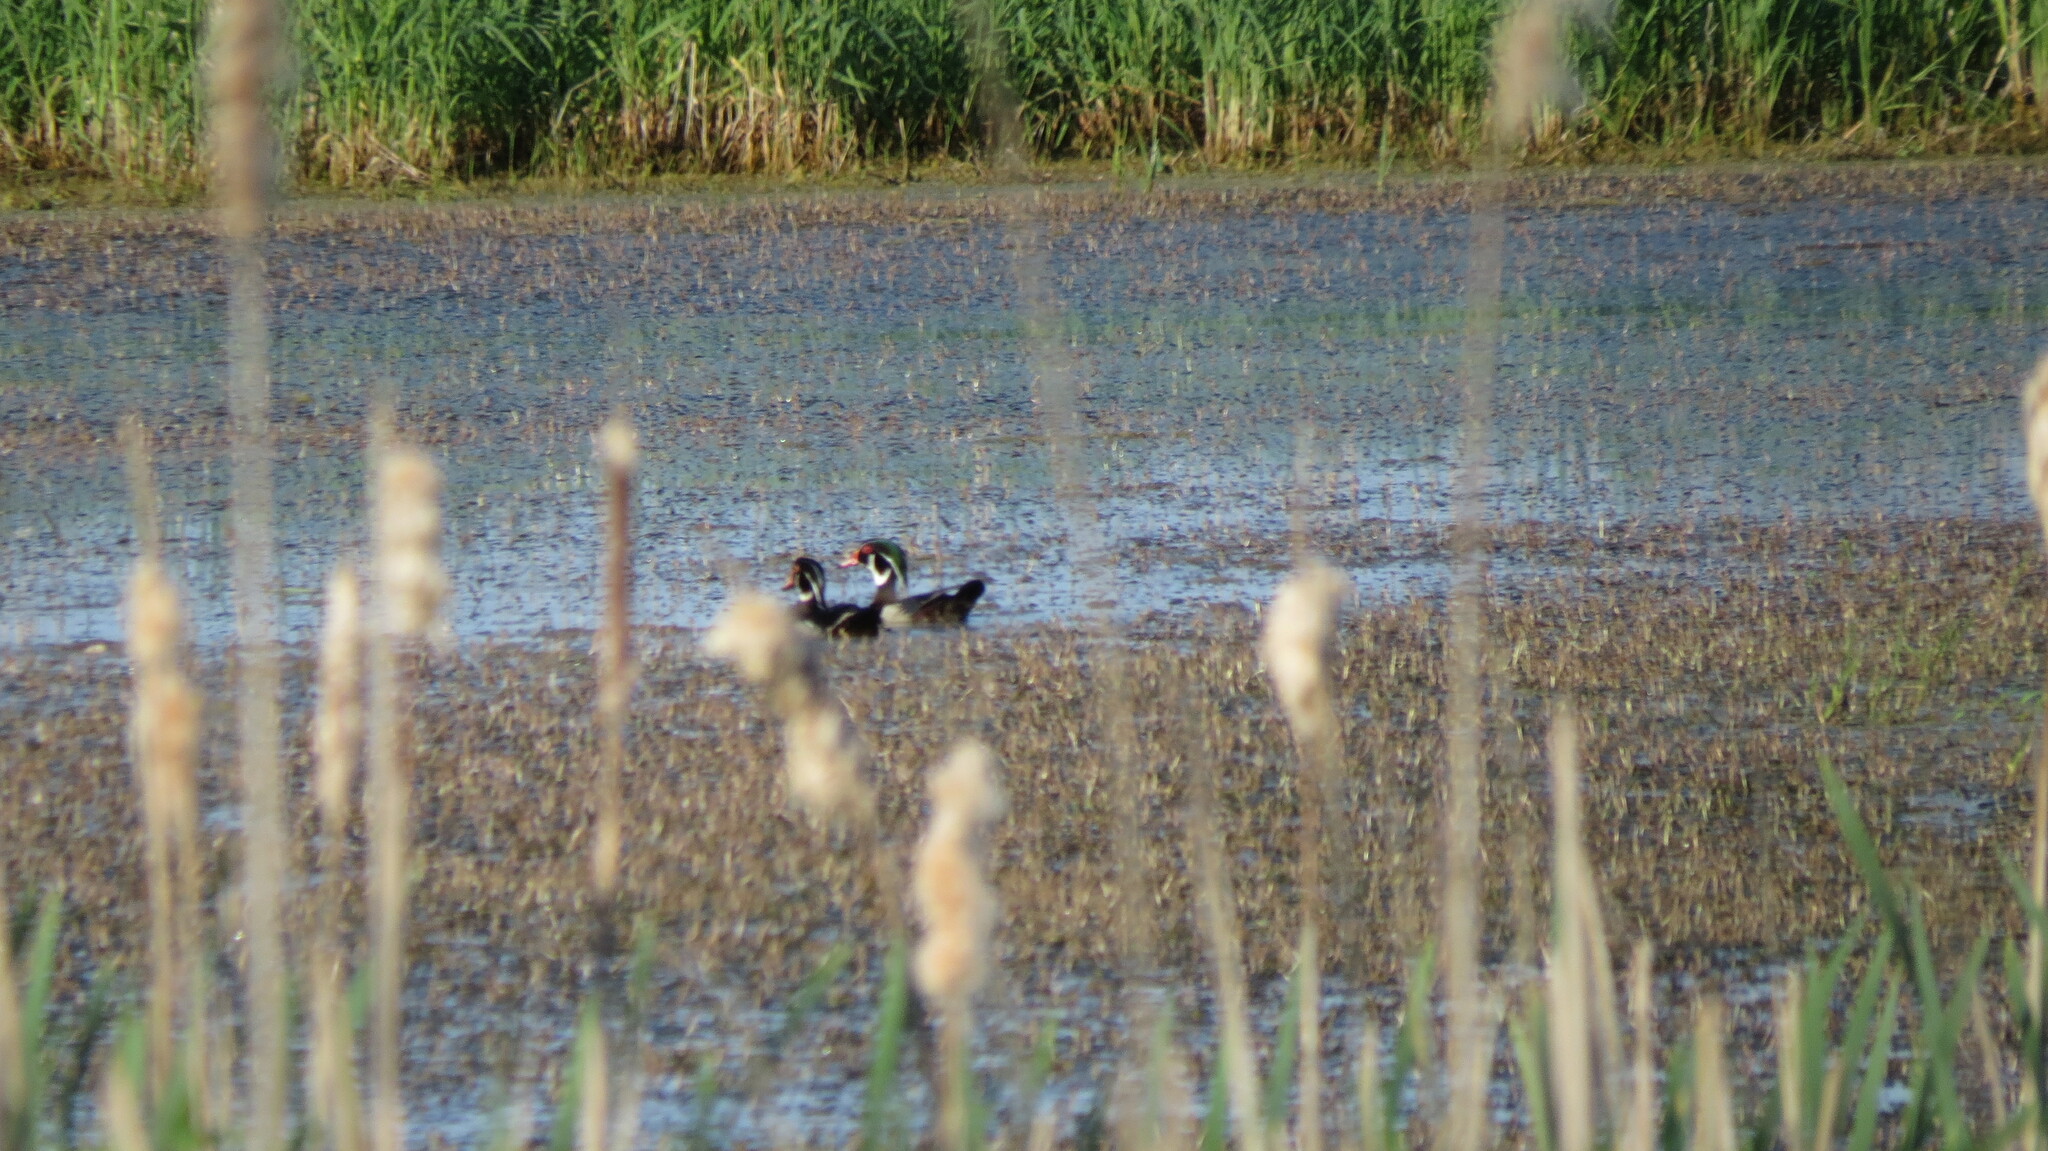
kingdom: Animalia
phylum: Chordata
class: Aves
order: Anseriformes
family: Anatidae
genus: Aix
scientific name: Aix sponsa
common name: Wood duck
